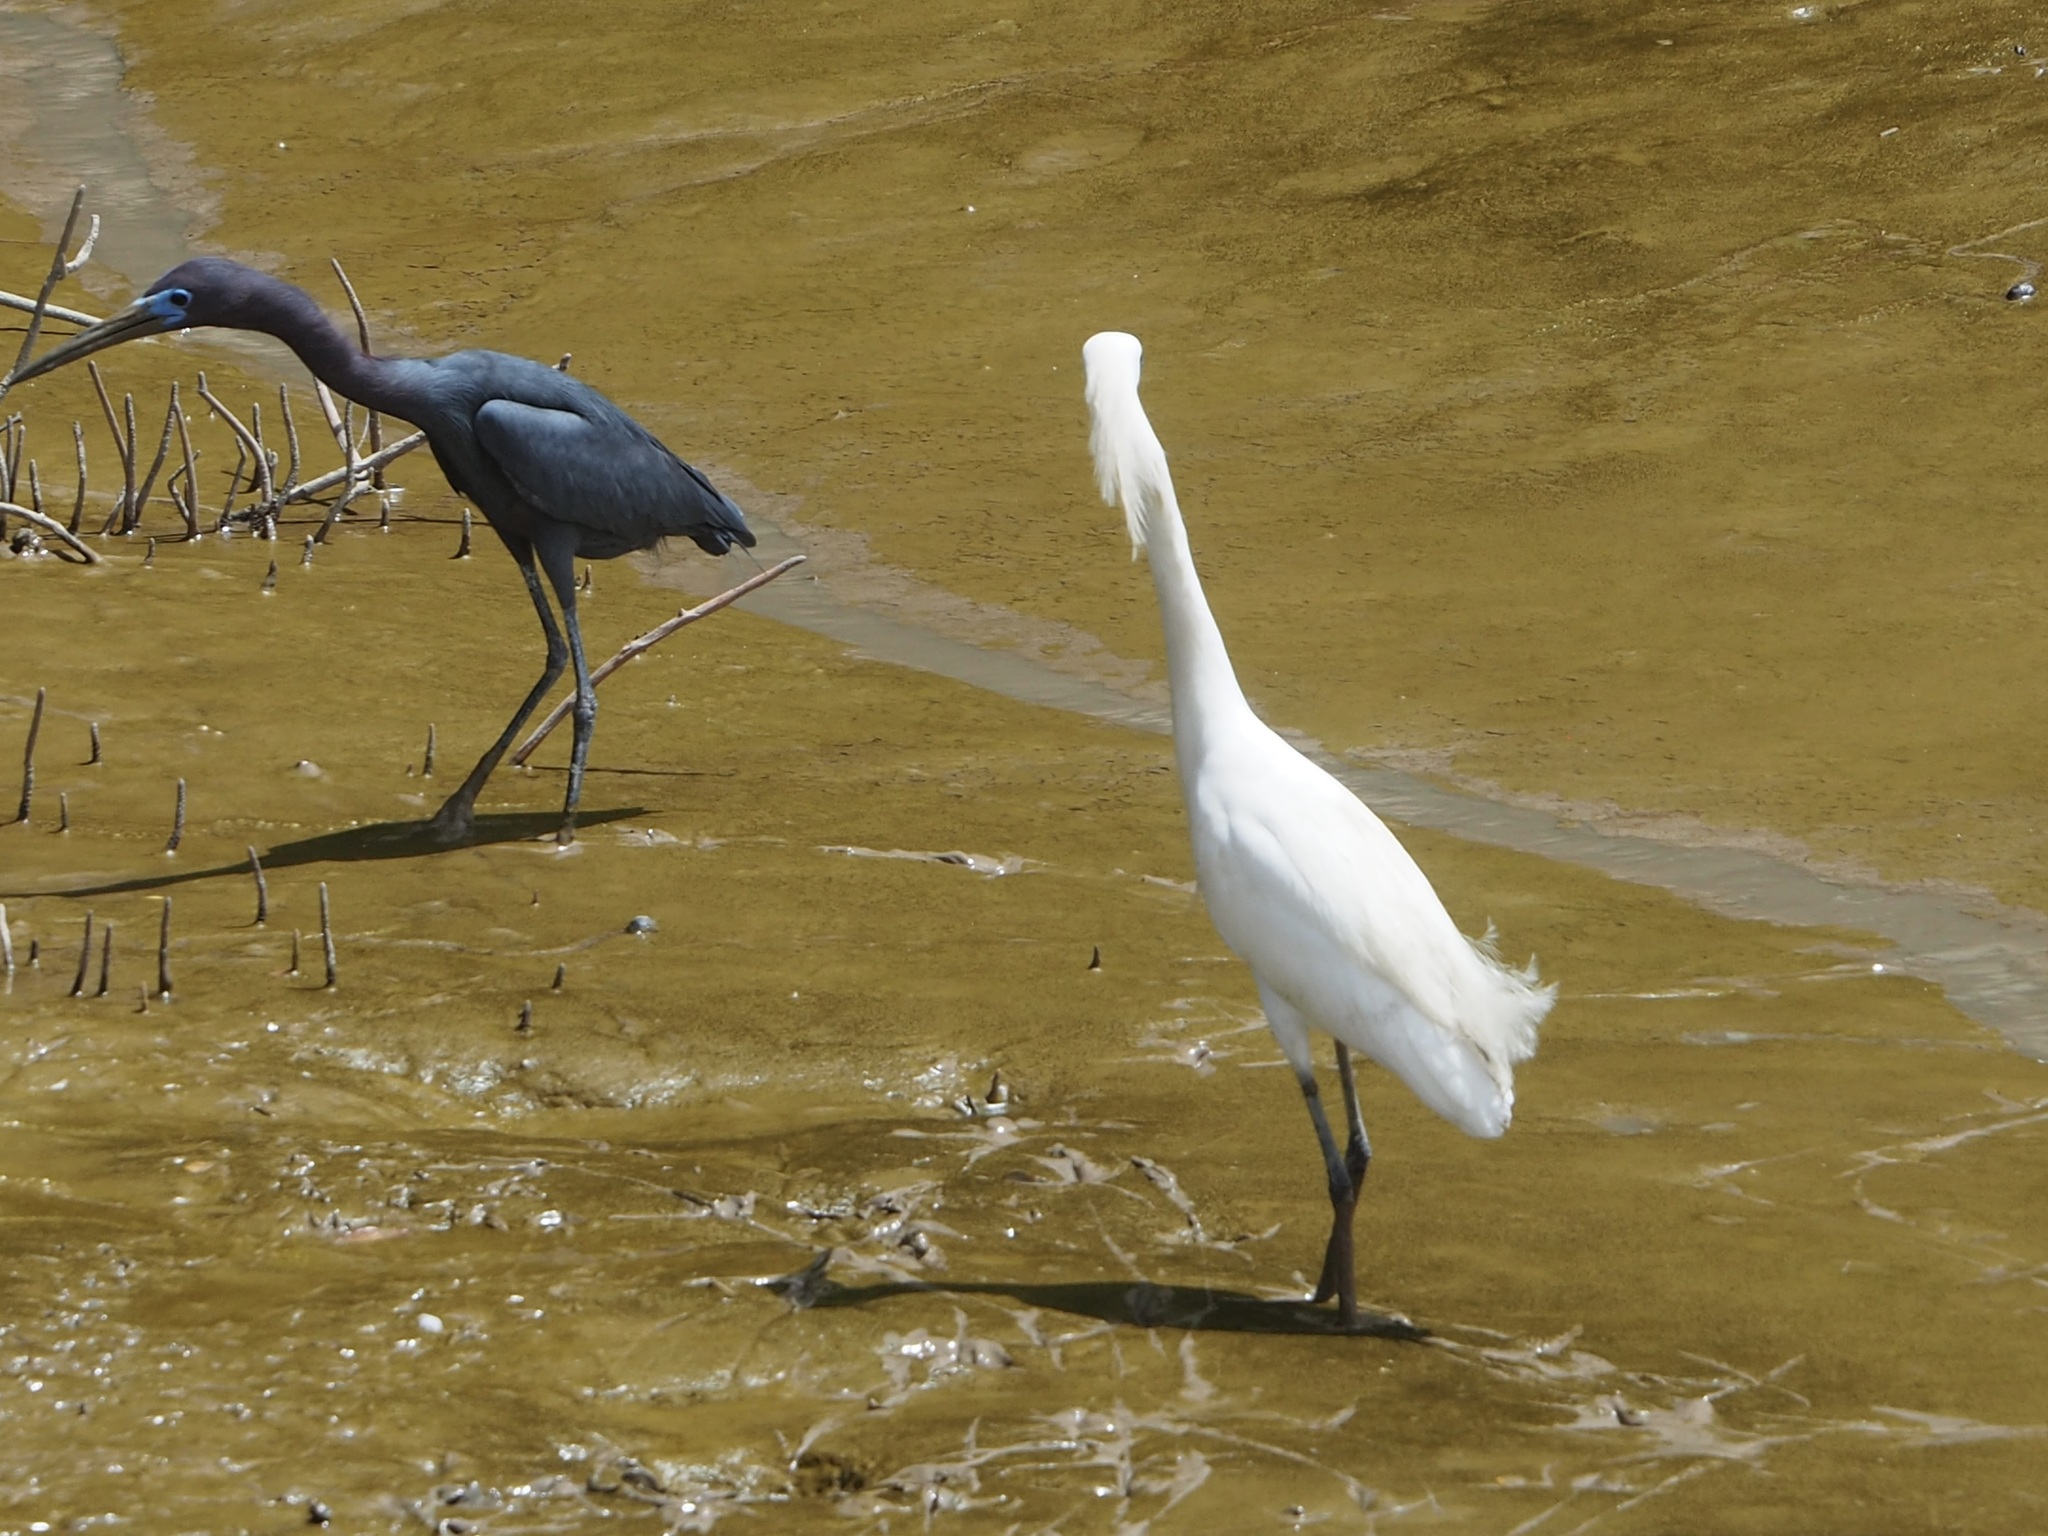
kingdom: Animalia
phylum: Chordata
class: Aves
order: Pelecaniformes
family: Ardeidae
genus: Egretta
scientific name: Egretta caerulea
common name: Little blue heron
